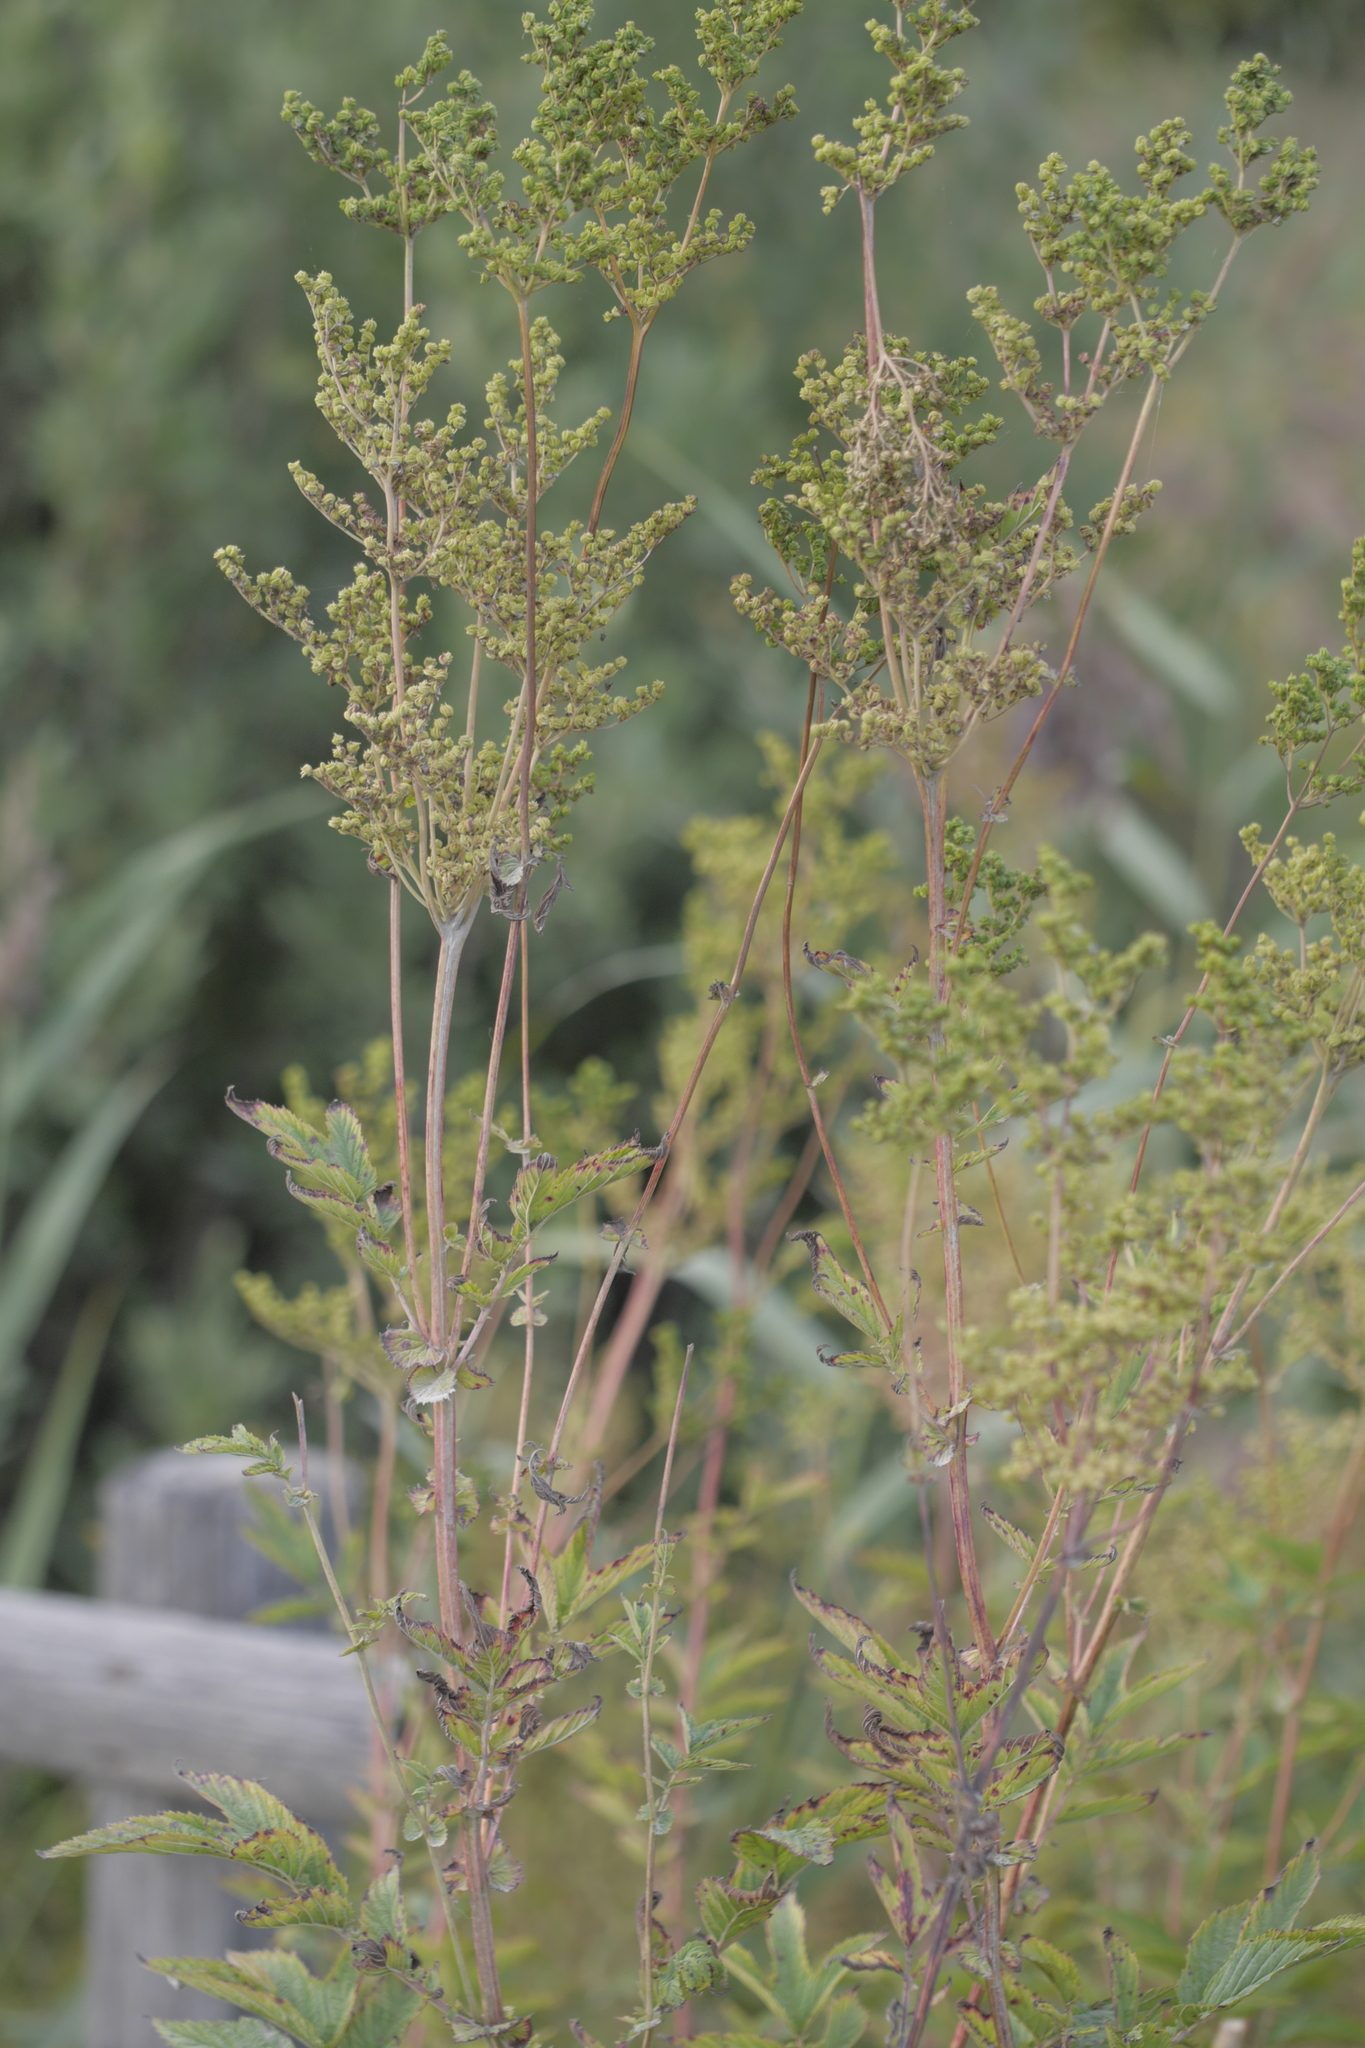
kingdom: Plantae
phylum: Tracheophyta
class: Magnoliopsida
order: Rosales
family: Rosaceae
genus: Filipendula
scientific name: Filipendula ulmaria
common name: Meadowsweet
